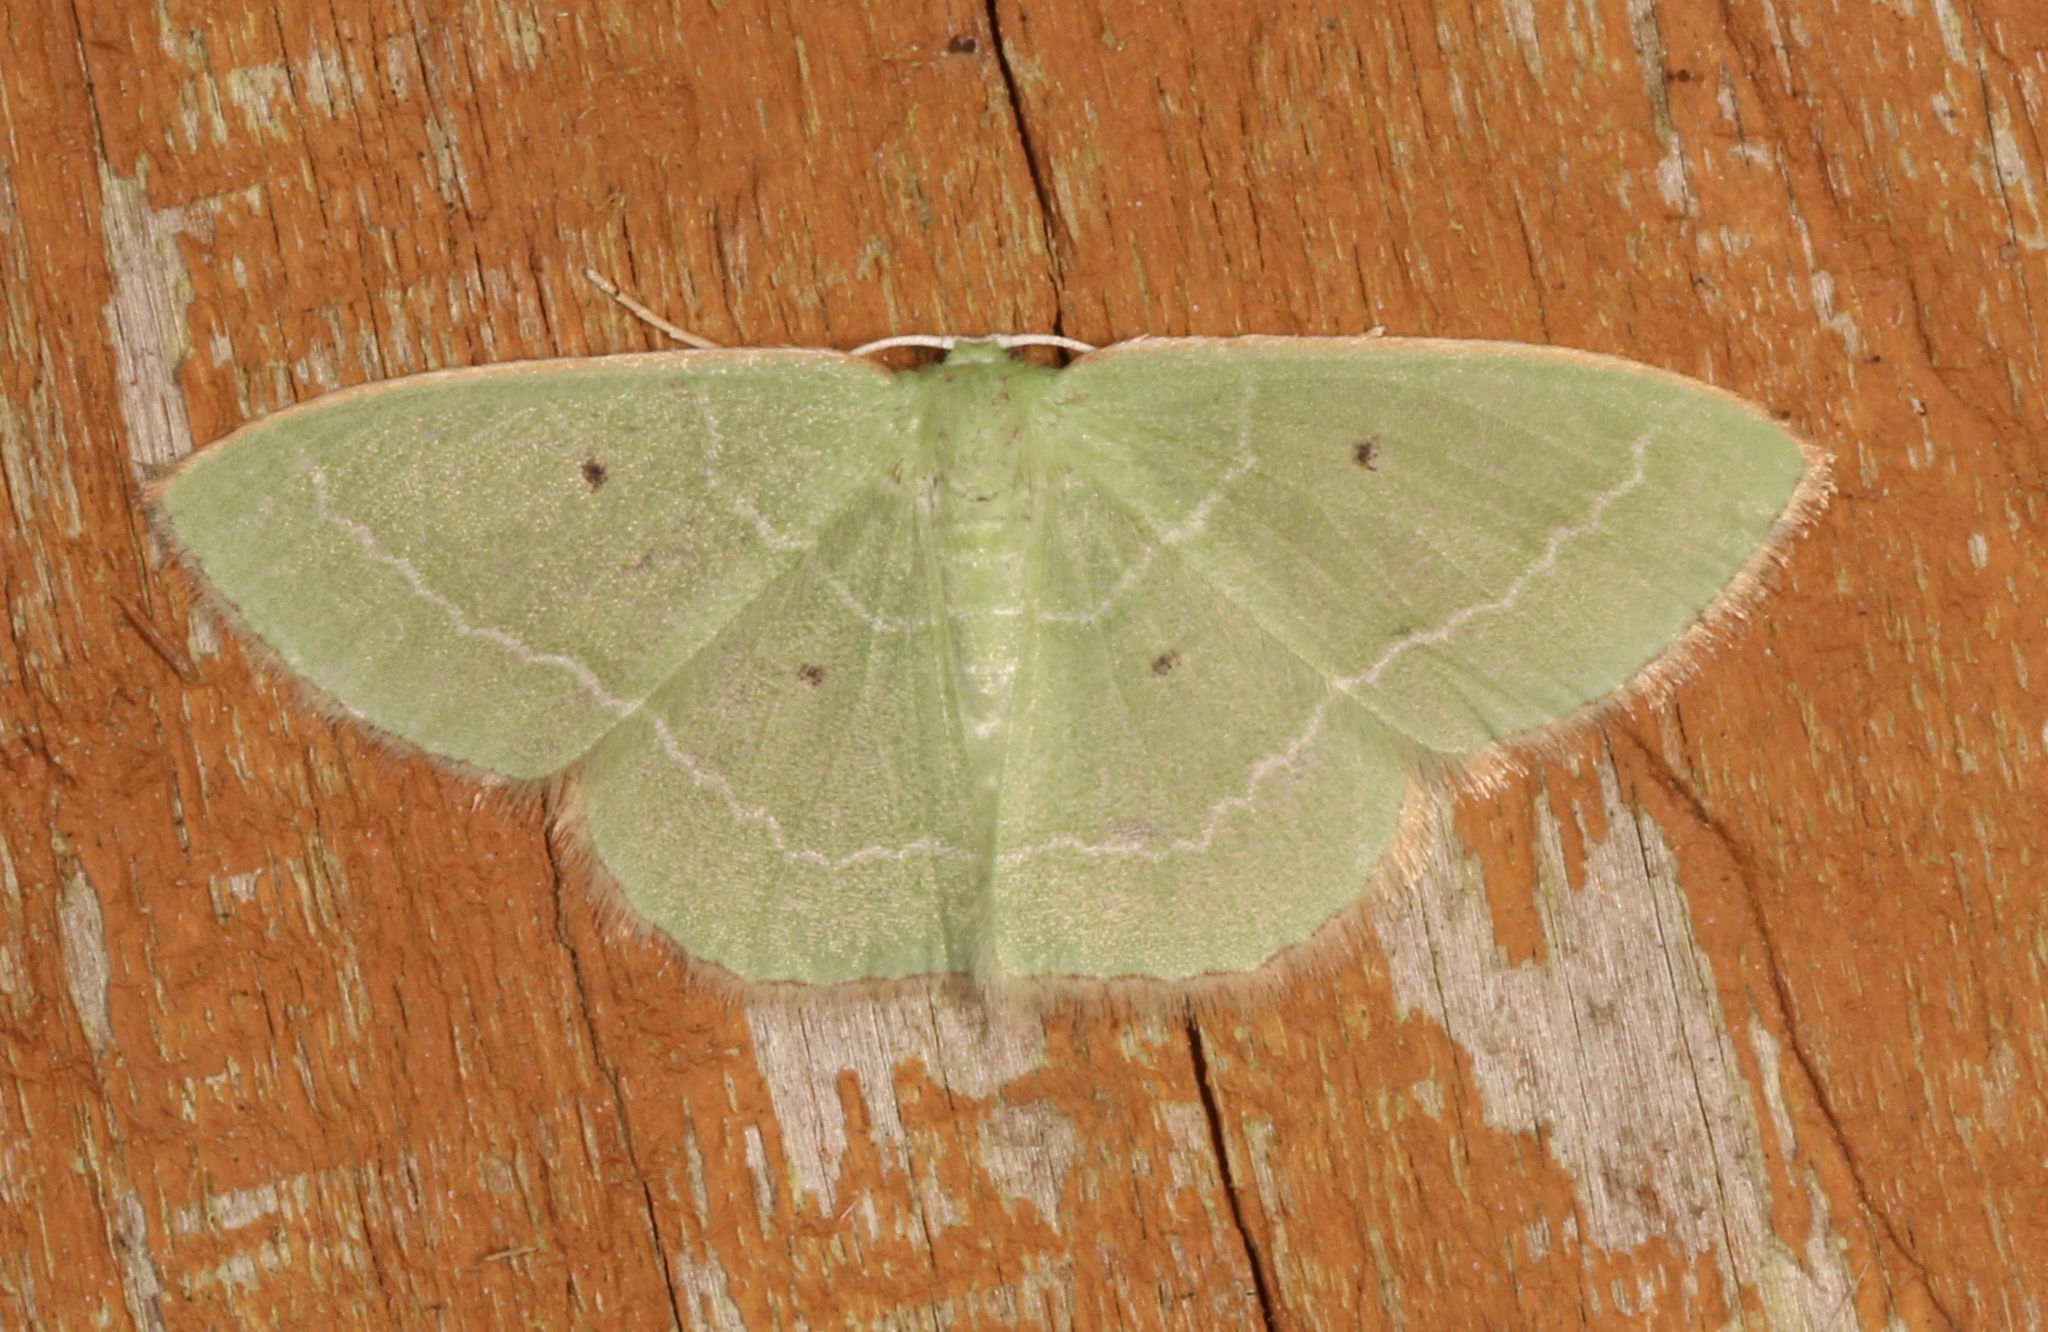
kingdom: Animalia
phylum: Arthropoda
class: Insecta
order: Lepidoptera
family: Geometridae
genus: Nemoria
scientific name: Nemoria elfa
